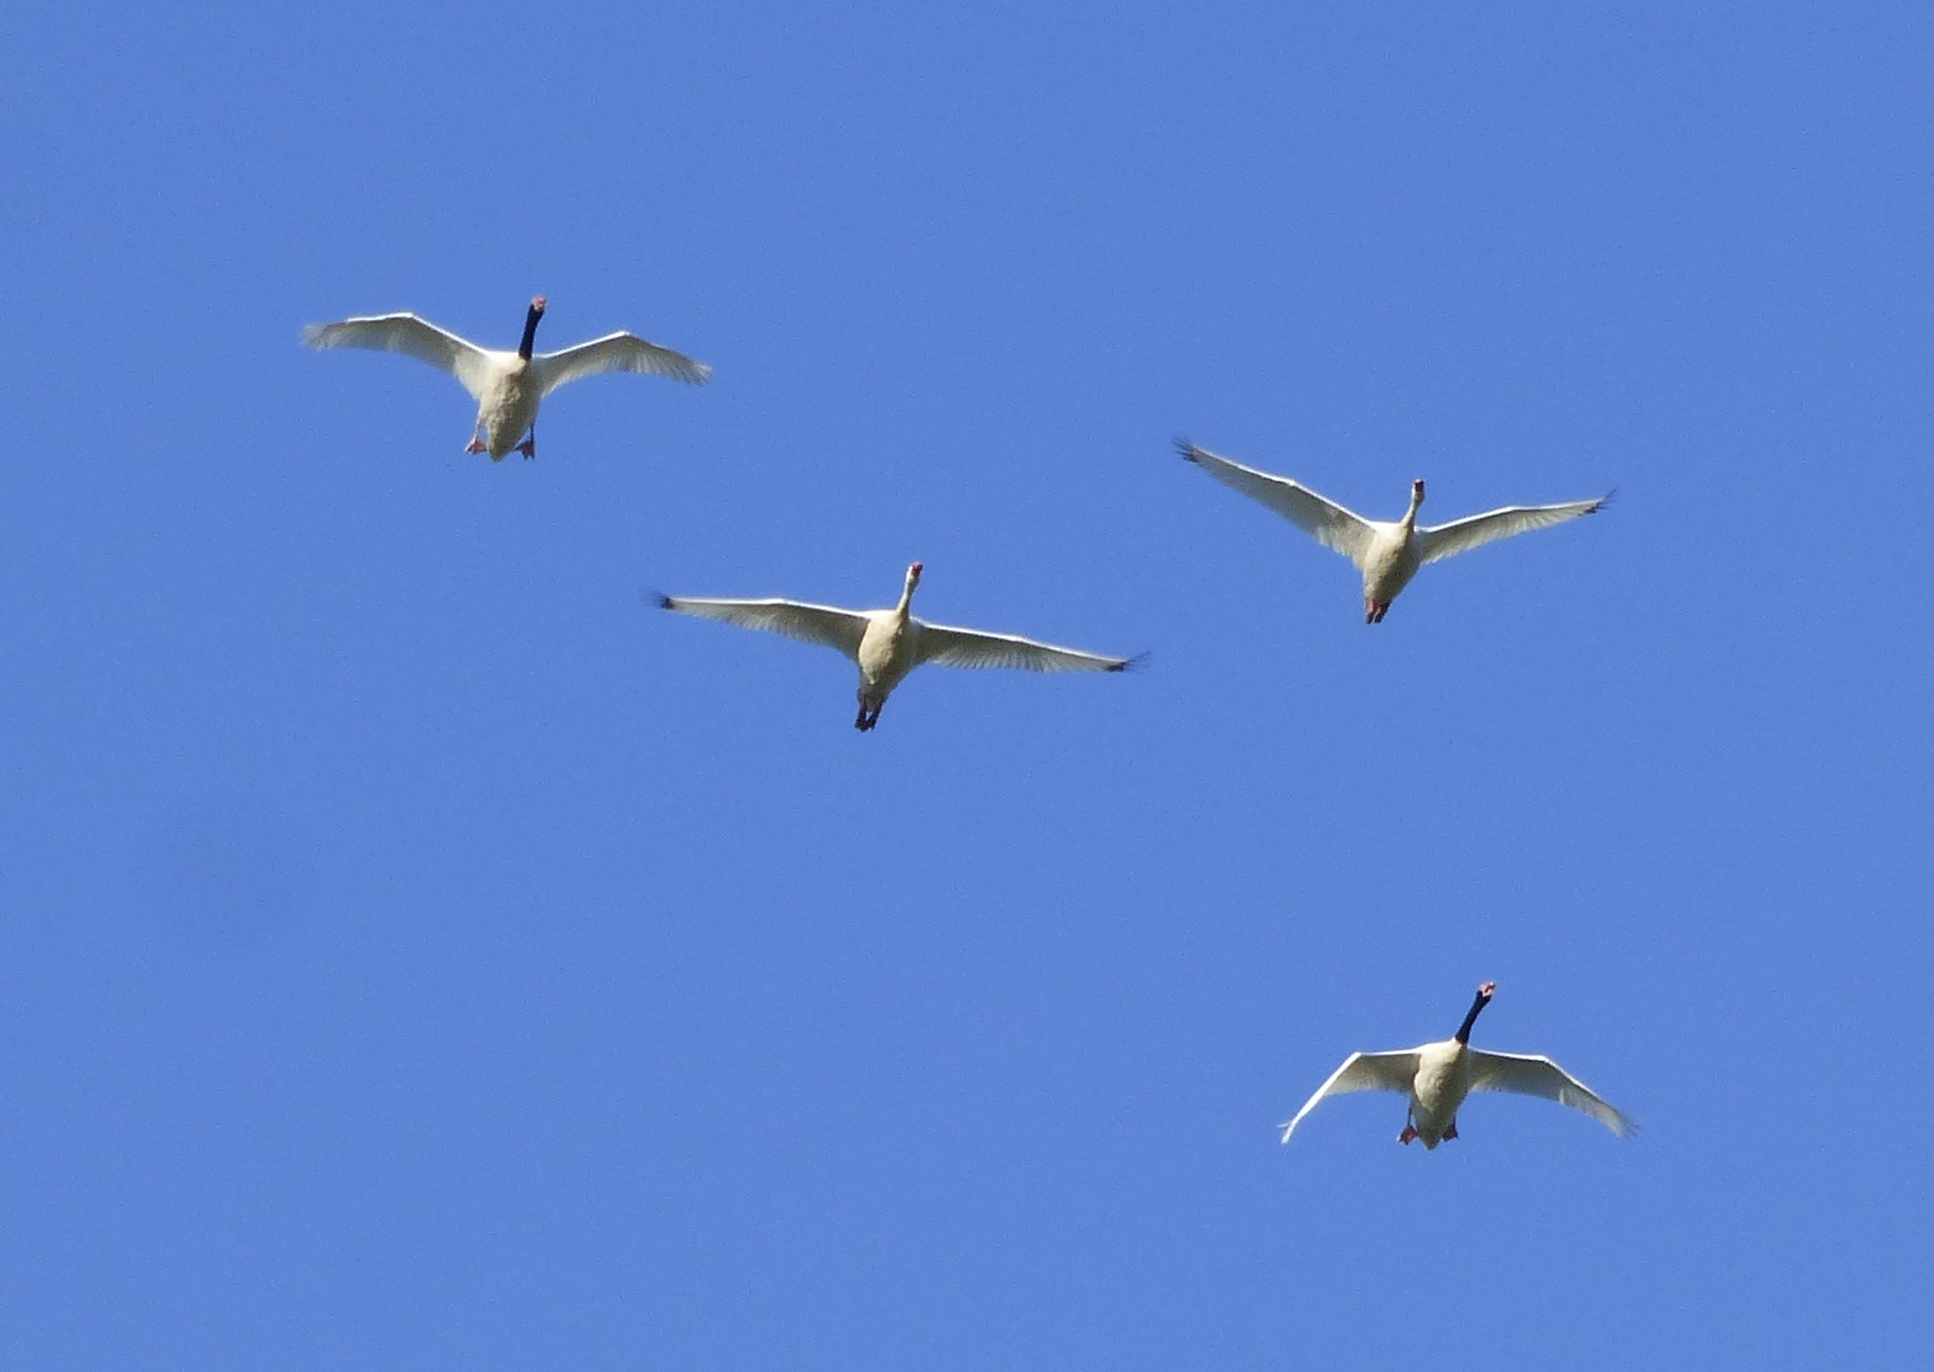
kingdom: Animalia
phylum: Chordata
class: Aves
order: Anseriformes
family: Anatidae
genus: Cygnus
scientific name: Cygnus melancoryphus
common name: Black-necked swan
